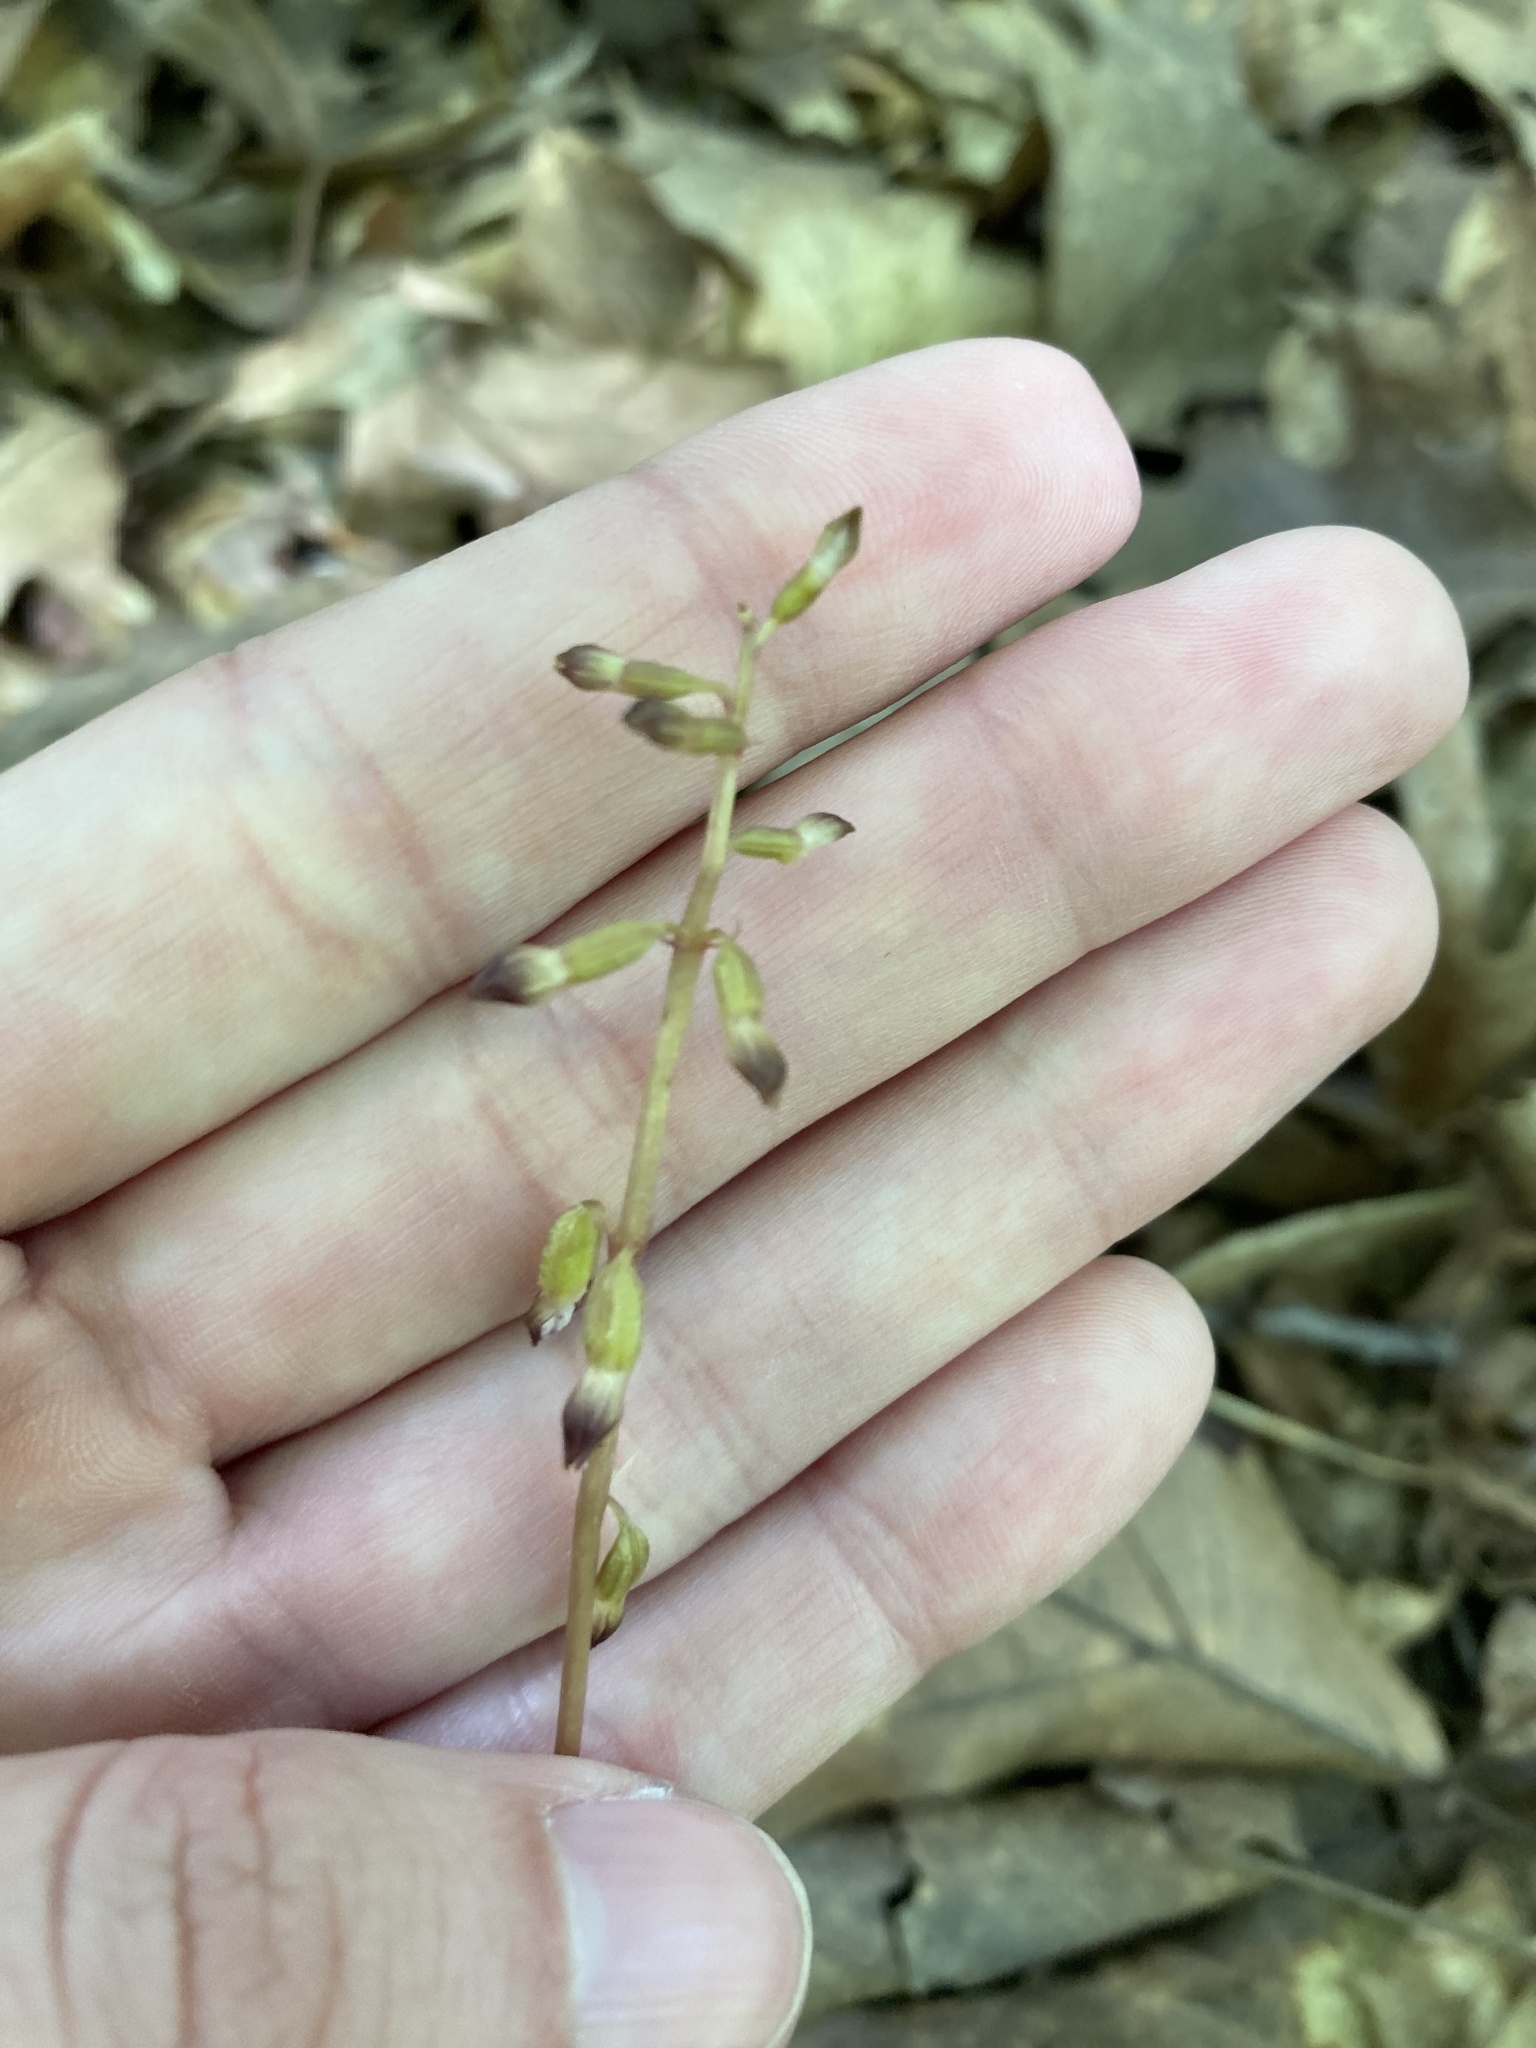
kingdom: Plantae
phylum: Tracheophyta
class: Liliopsida
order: Asparagales
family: Orchidaceae
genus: Corallorhiza
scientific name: Corallorhiza odontorhiza
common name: Autumn coralroot
